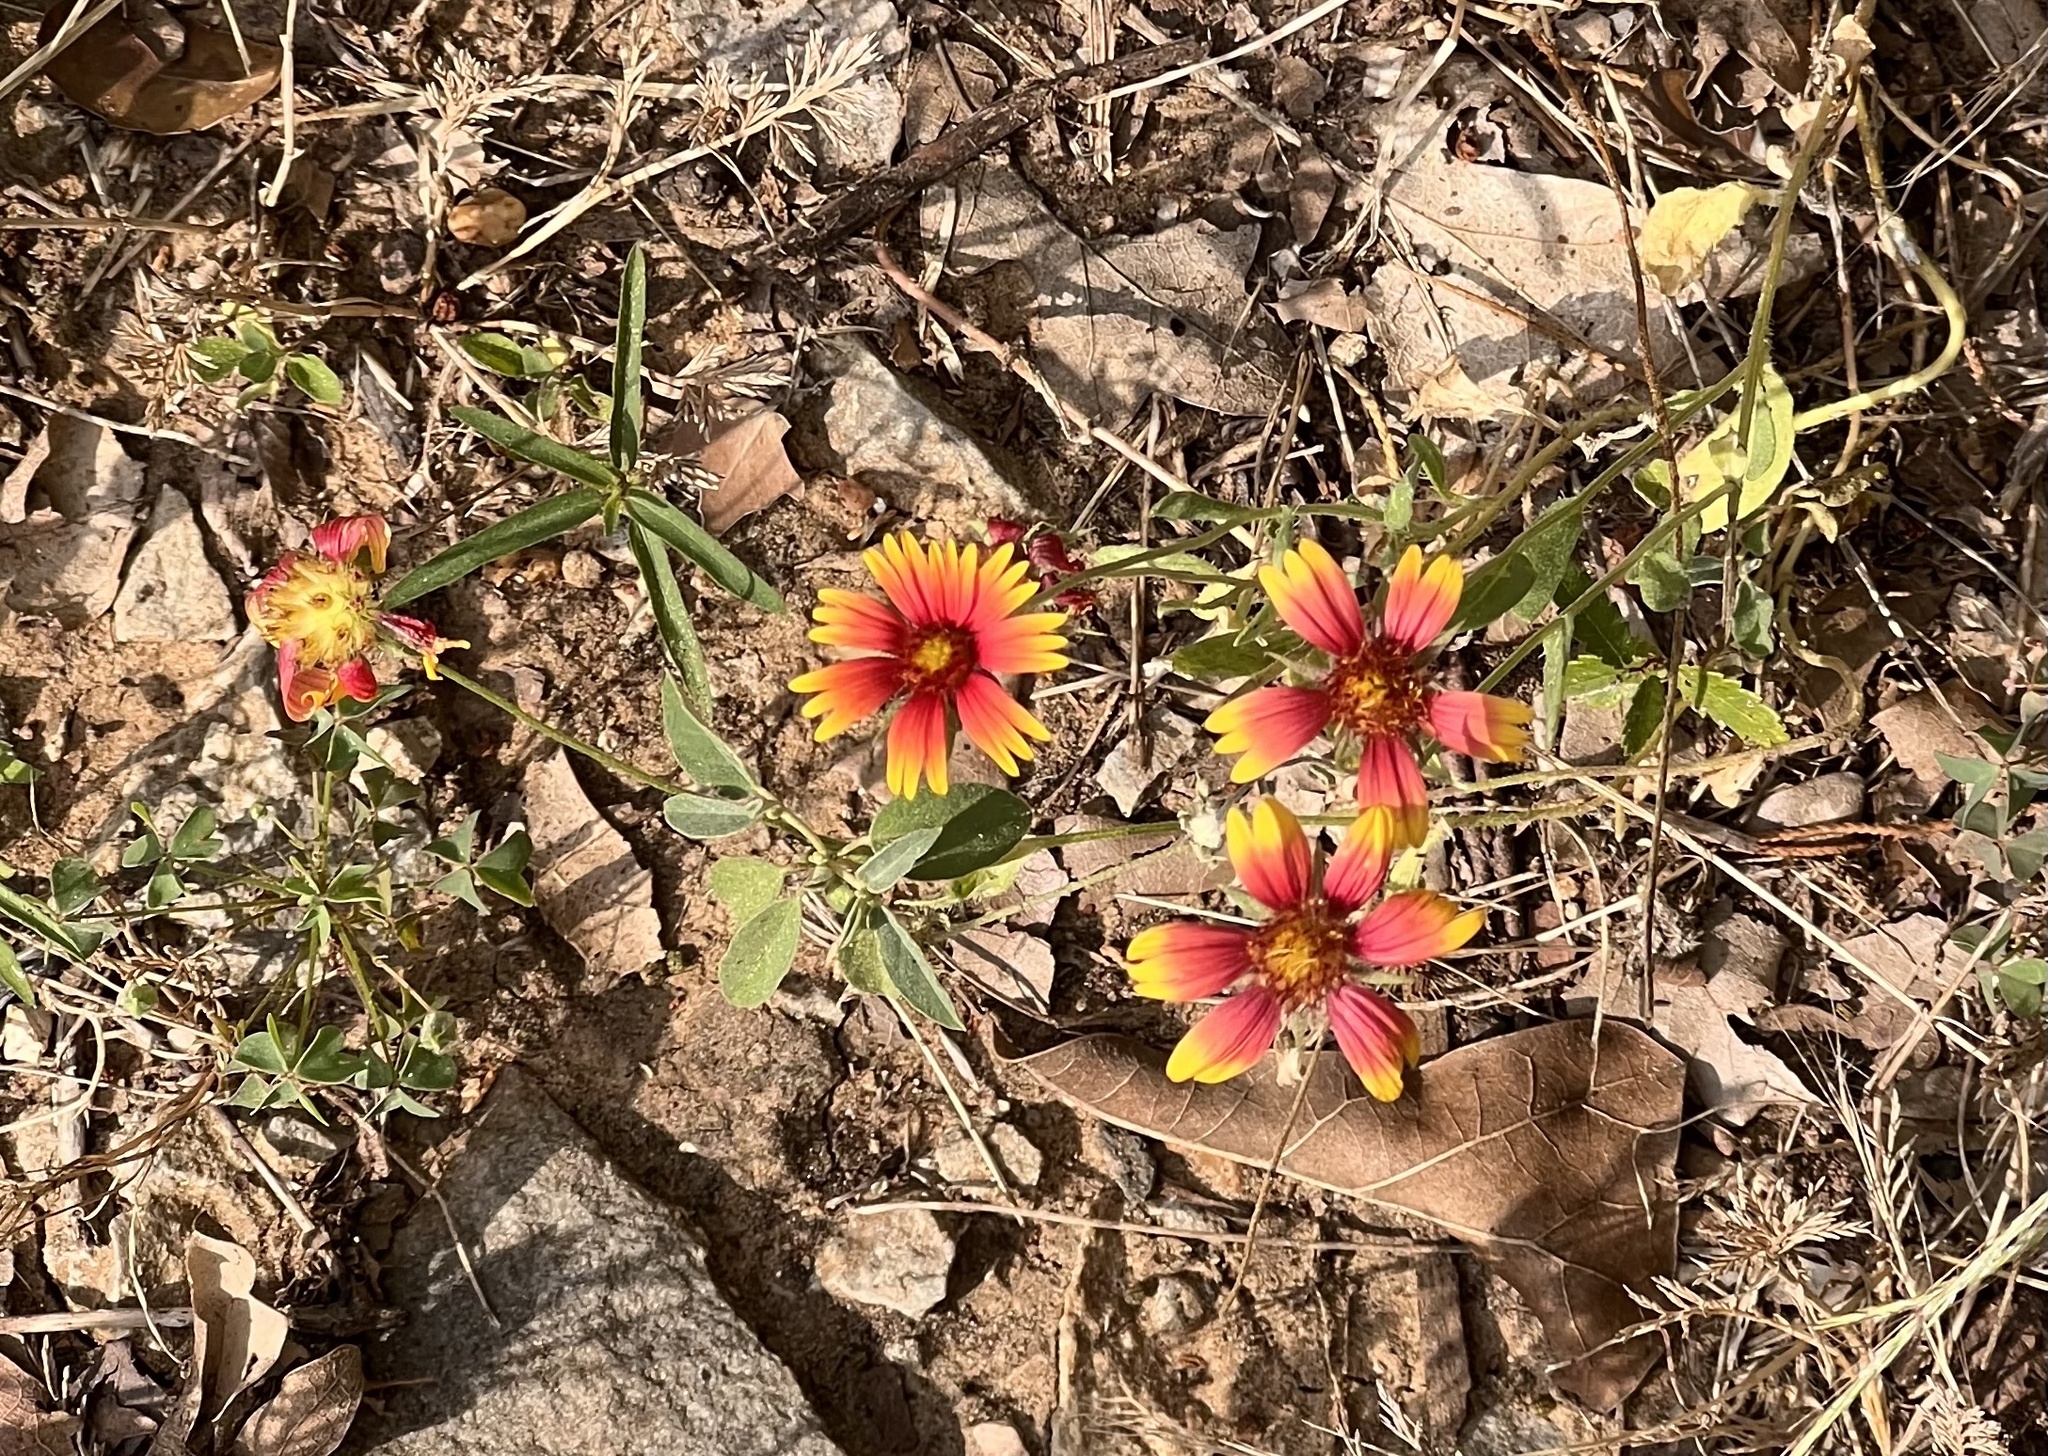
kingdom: Plantae
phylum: Tracheophyta
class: Magnoliopsida
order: Asterales
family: Asteraceae
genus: Gaillardia
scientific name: Gaillardia pulchella
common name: Firewheel
